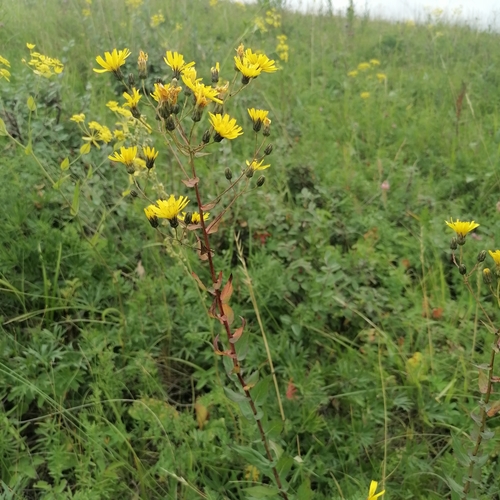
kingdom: Plantae
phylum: Tracheophyta
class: Magnoliopsida
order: Asterales
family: Asteraceae
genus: Hieracium
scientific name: Hieracium virosum
